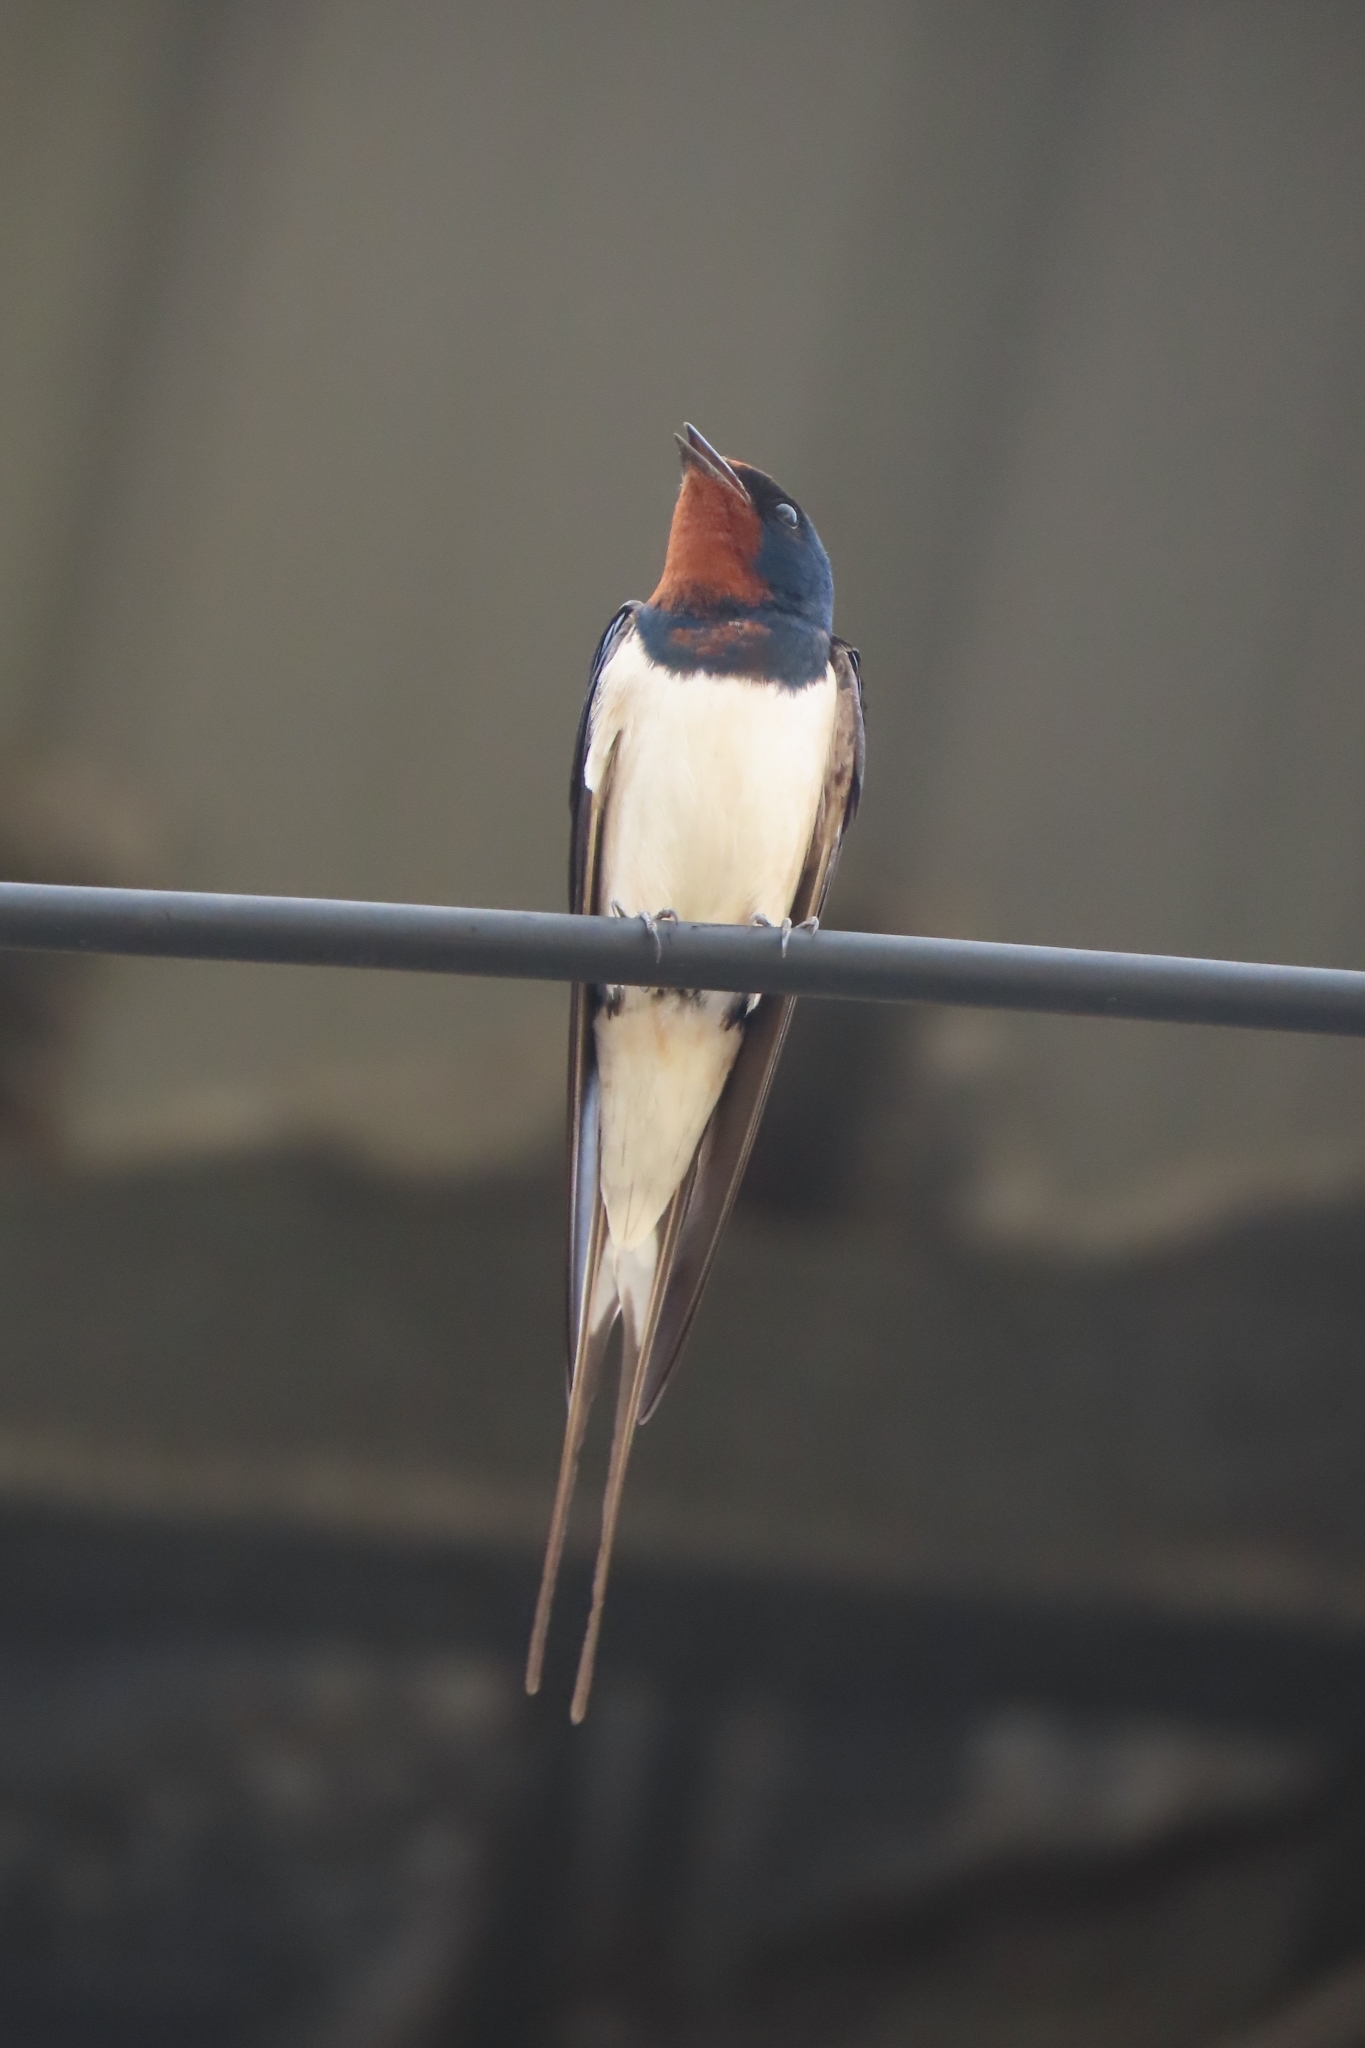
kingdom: Animalia
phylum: Chordata
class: Aves
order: Passeriformes
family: Hirundinidae
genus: Hirundo
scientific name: Hirundo rustica
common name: Barn swallow
